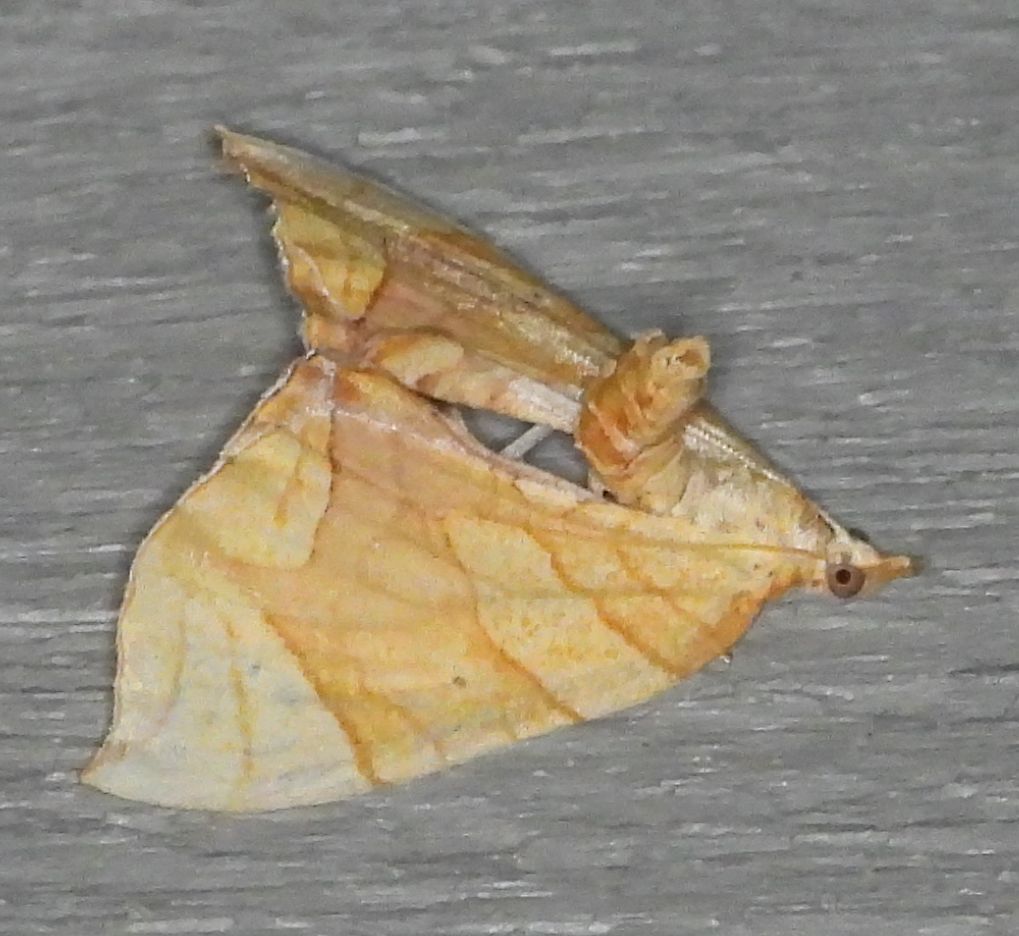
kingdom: Animalia
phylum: Arthropoda
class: Insecta
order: Lepidoptera
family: Geometridae
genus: Eulithis
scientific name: Eulithis
